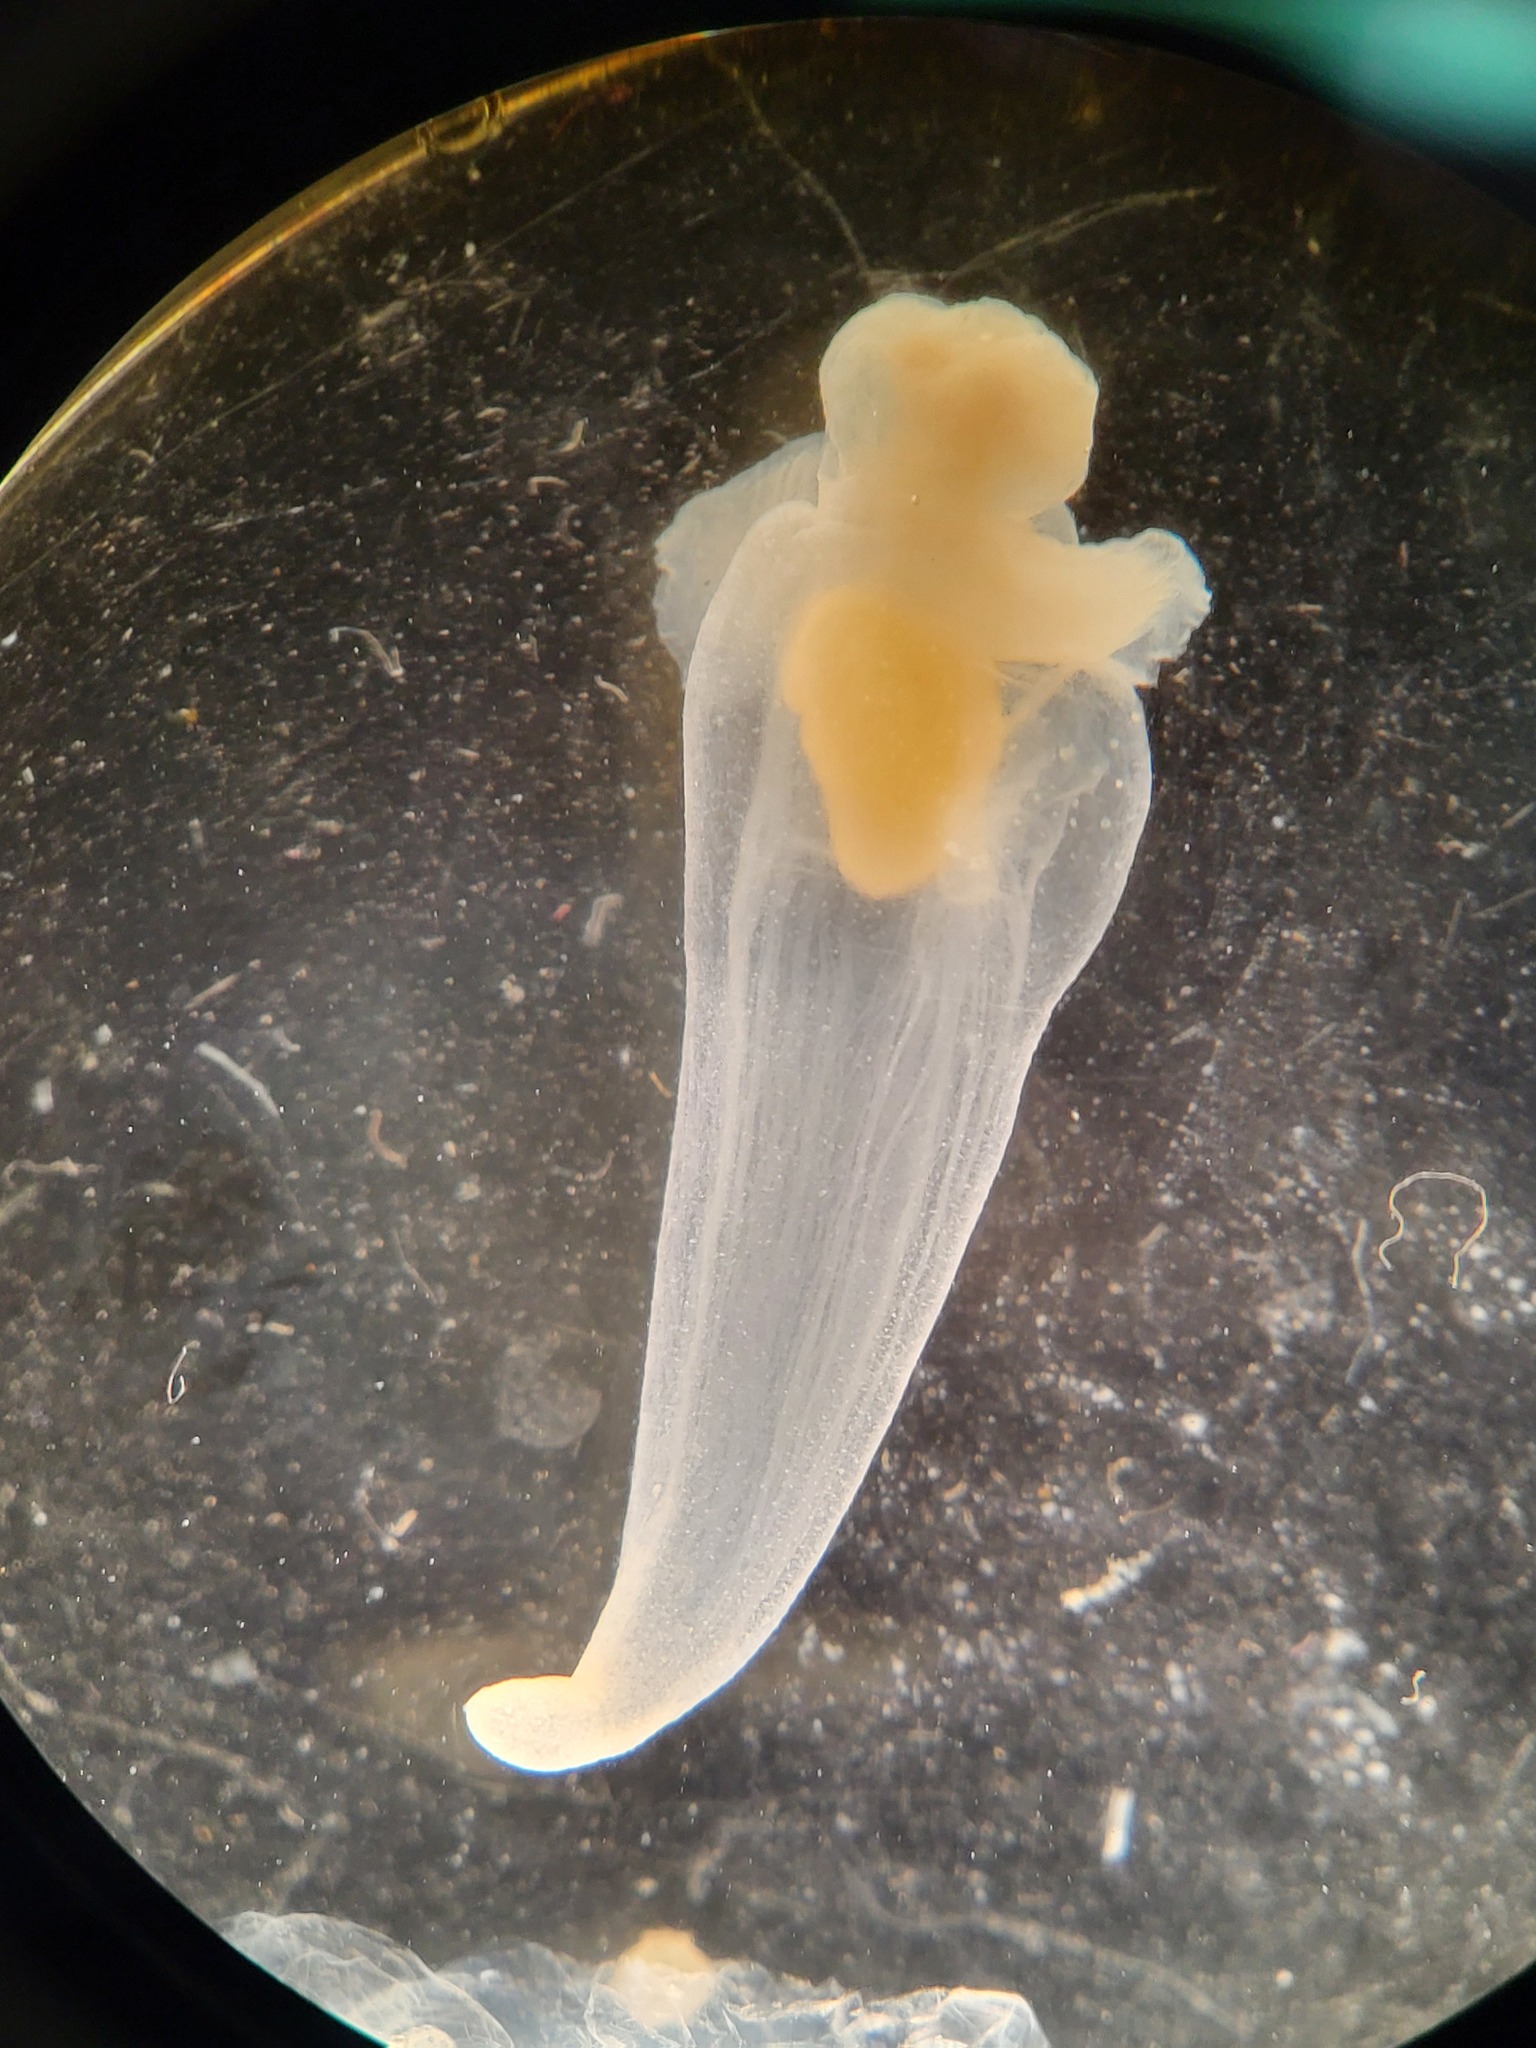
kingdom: Animalia
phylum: Mollusca
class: Gastropoda
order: Pteropoda
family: Clionidae
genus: Clione
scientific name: Clione limacina
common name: Common clione
